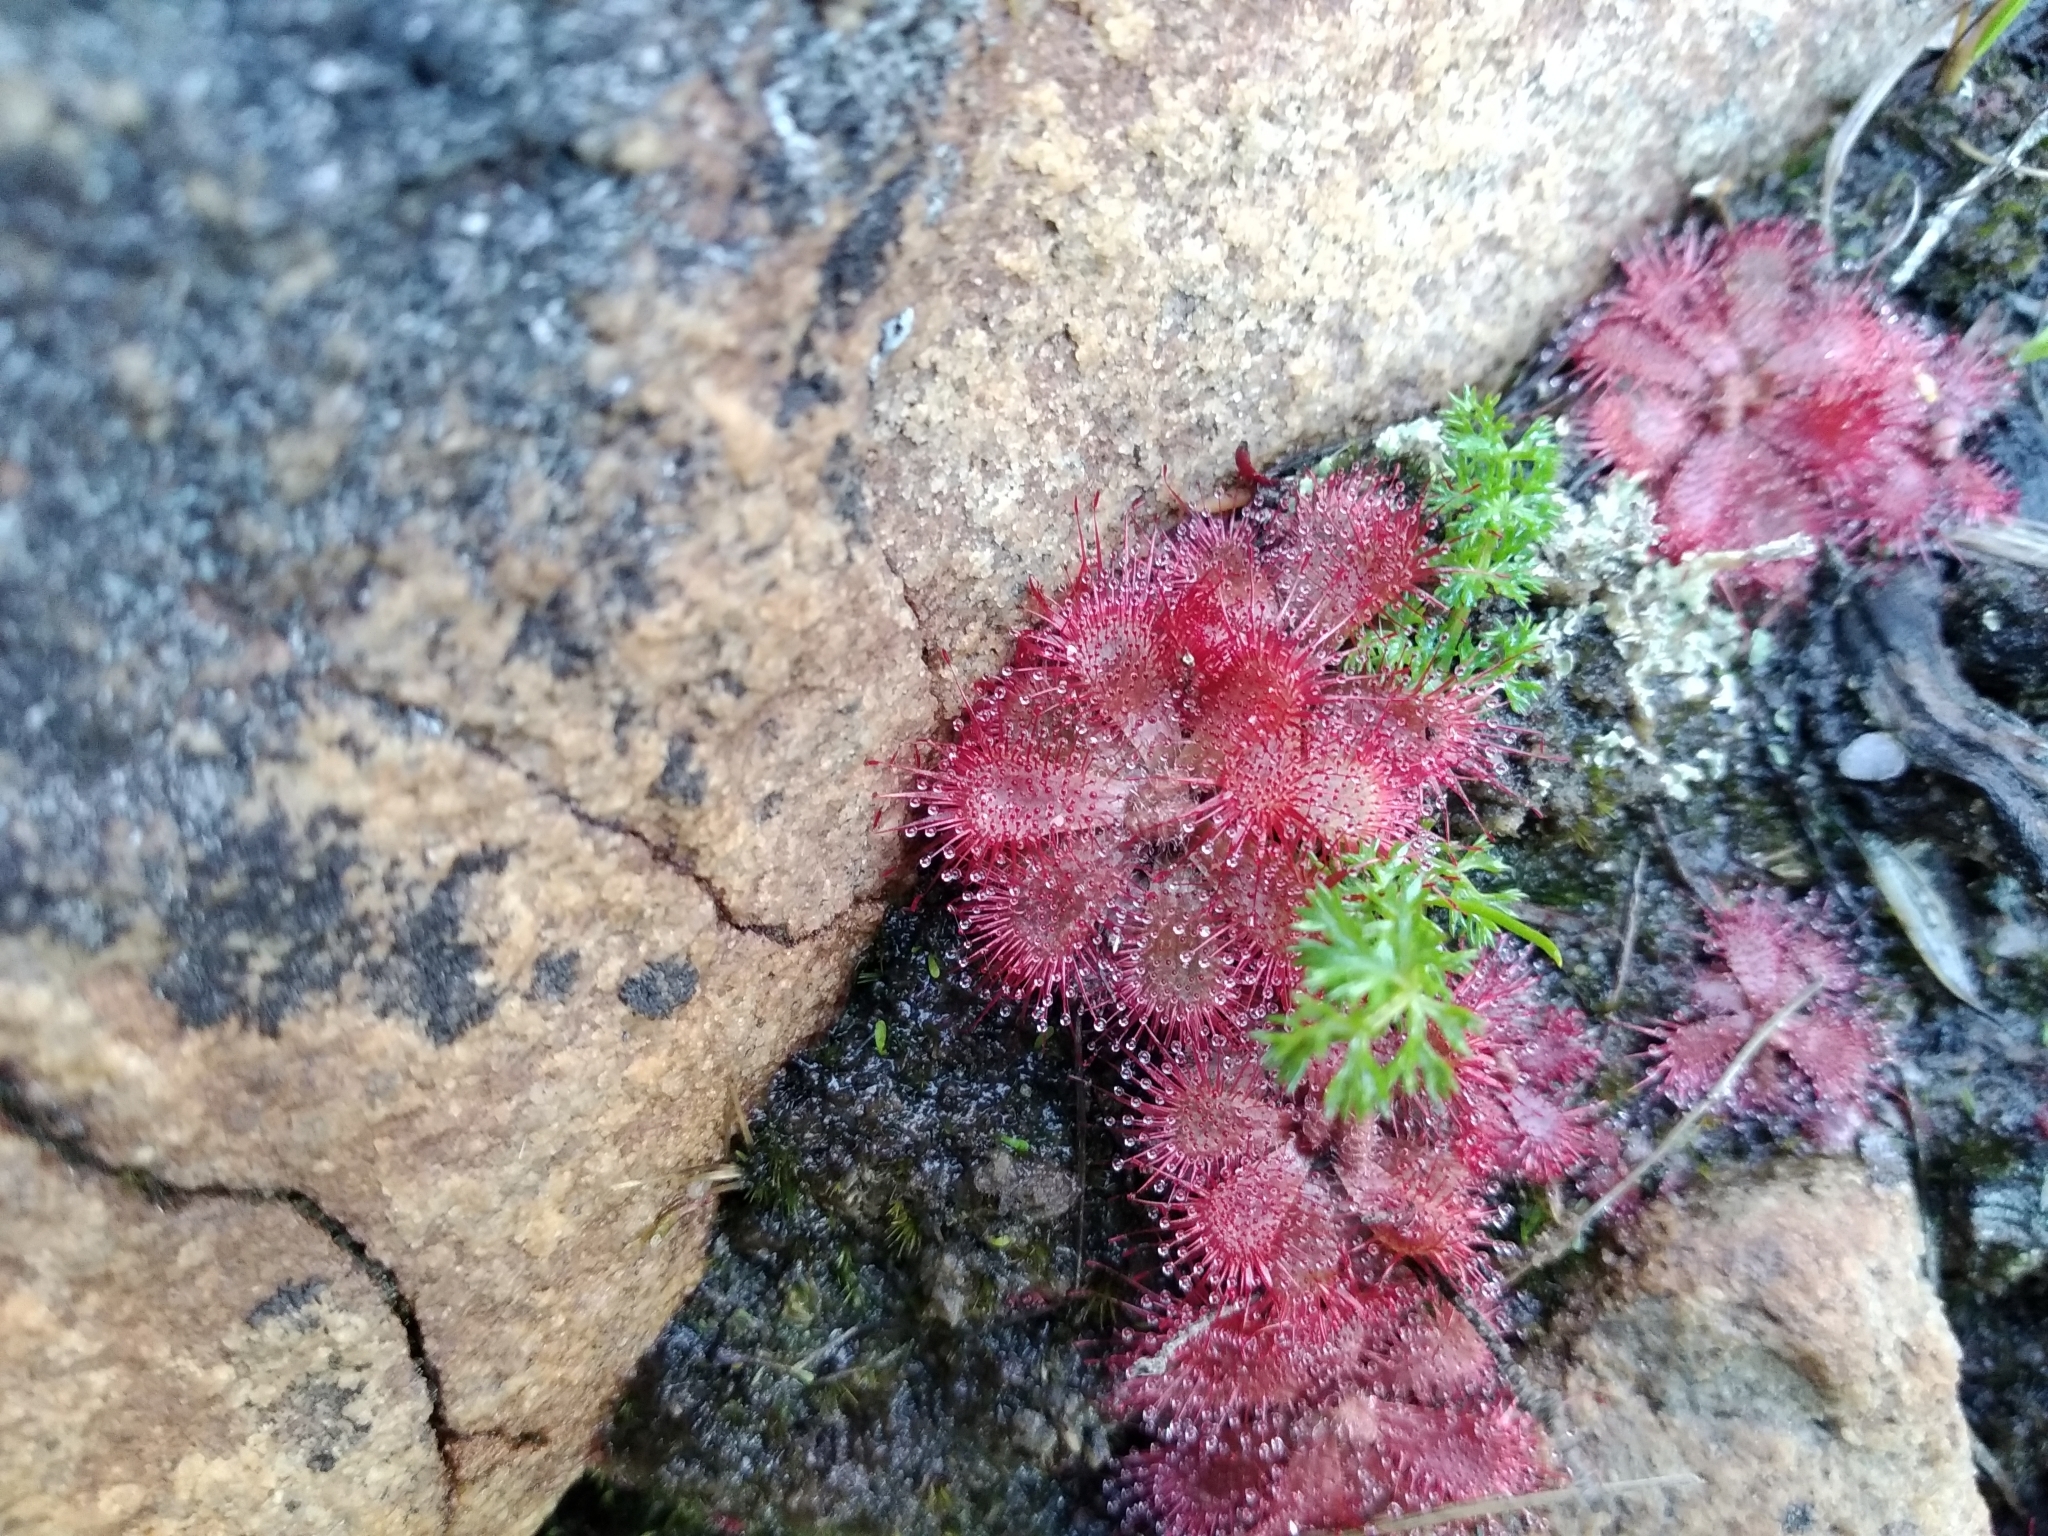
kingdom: Plantae
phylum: Tracheophyta
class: Magnoliopsida
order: Caryophyllales
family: Droseraceae
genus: Drosera
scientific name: Drosera trinervia
